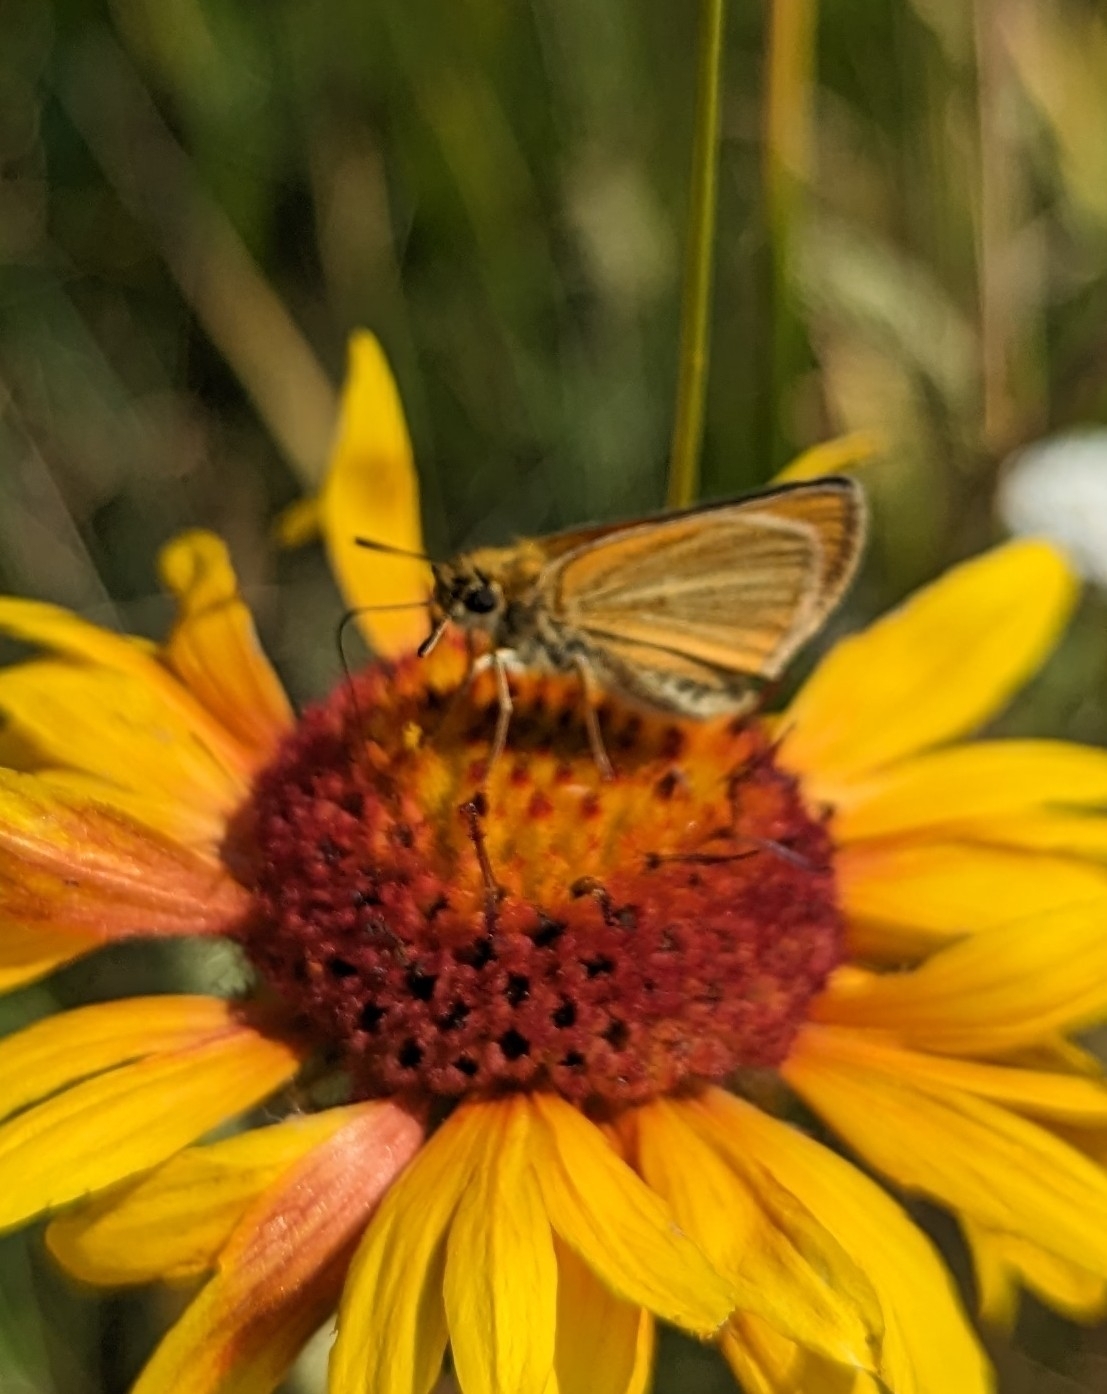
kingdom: Animalia
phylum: Arthropoda
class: Insecta
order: Lepidoptera
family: Hesperiidae
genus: Thymelicus
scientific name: Thymelicus lineola
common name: Essex skipper
